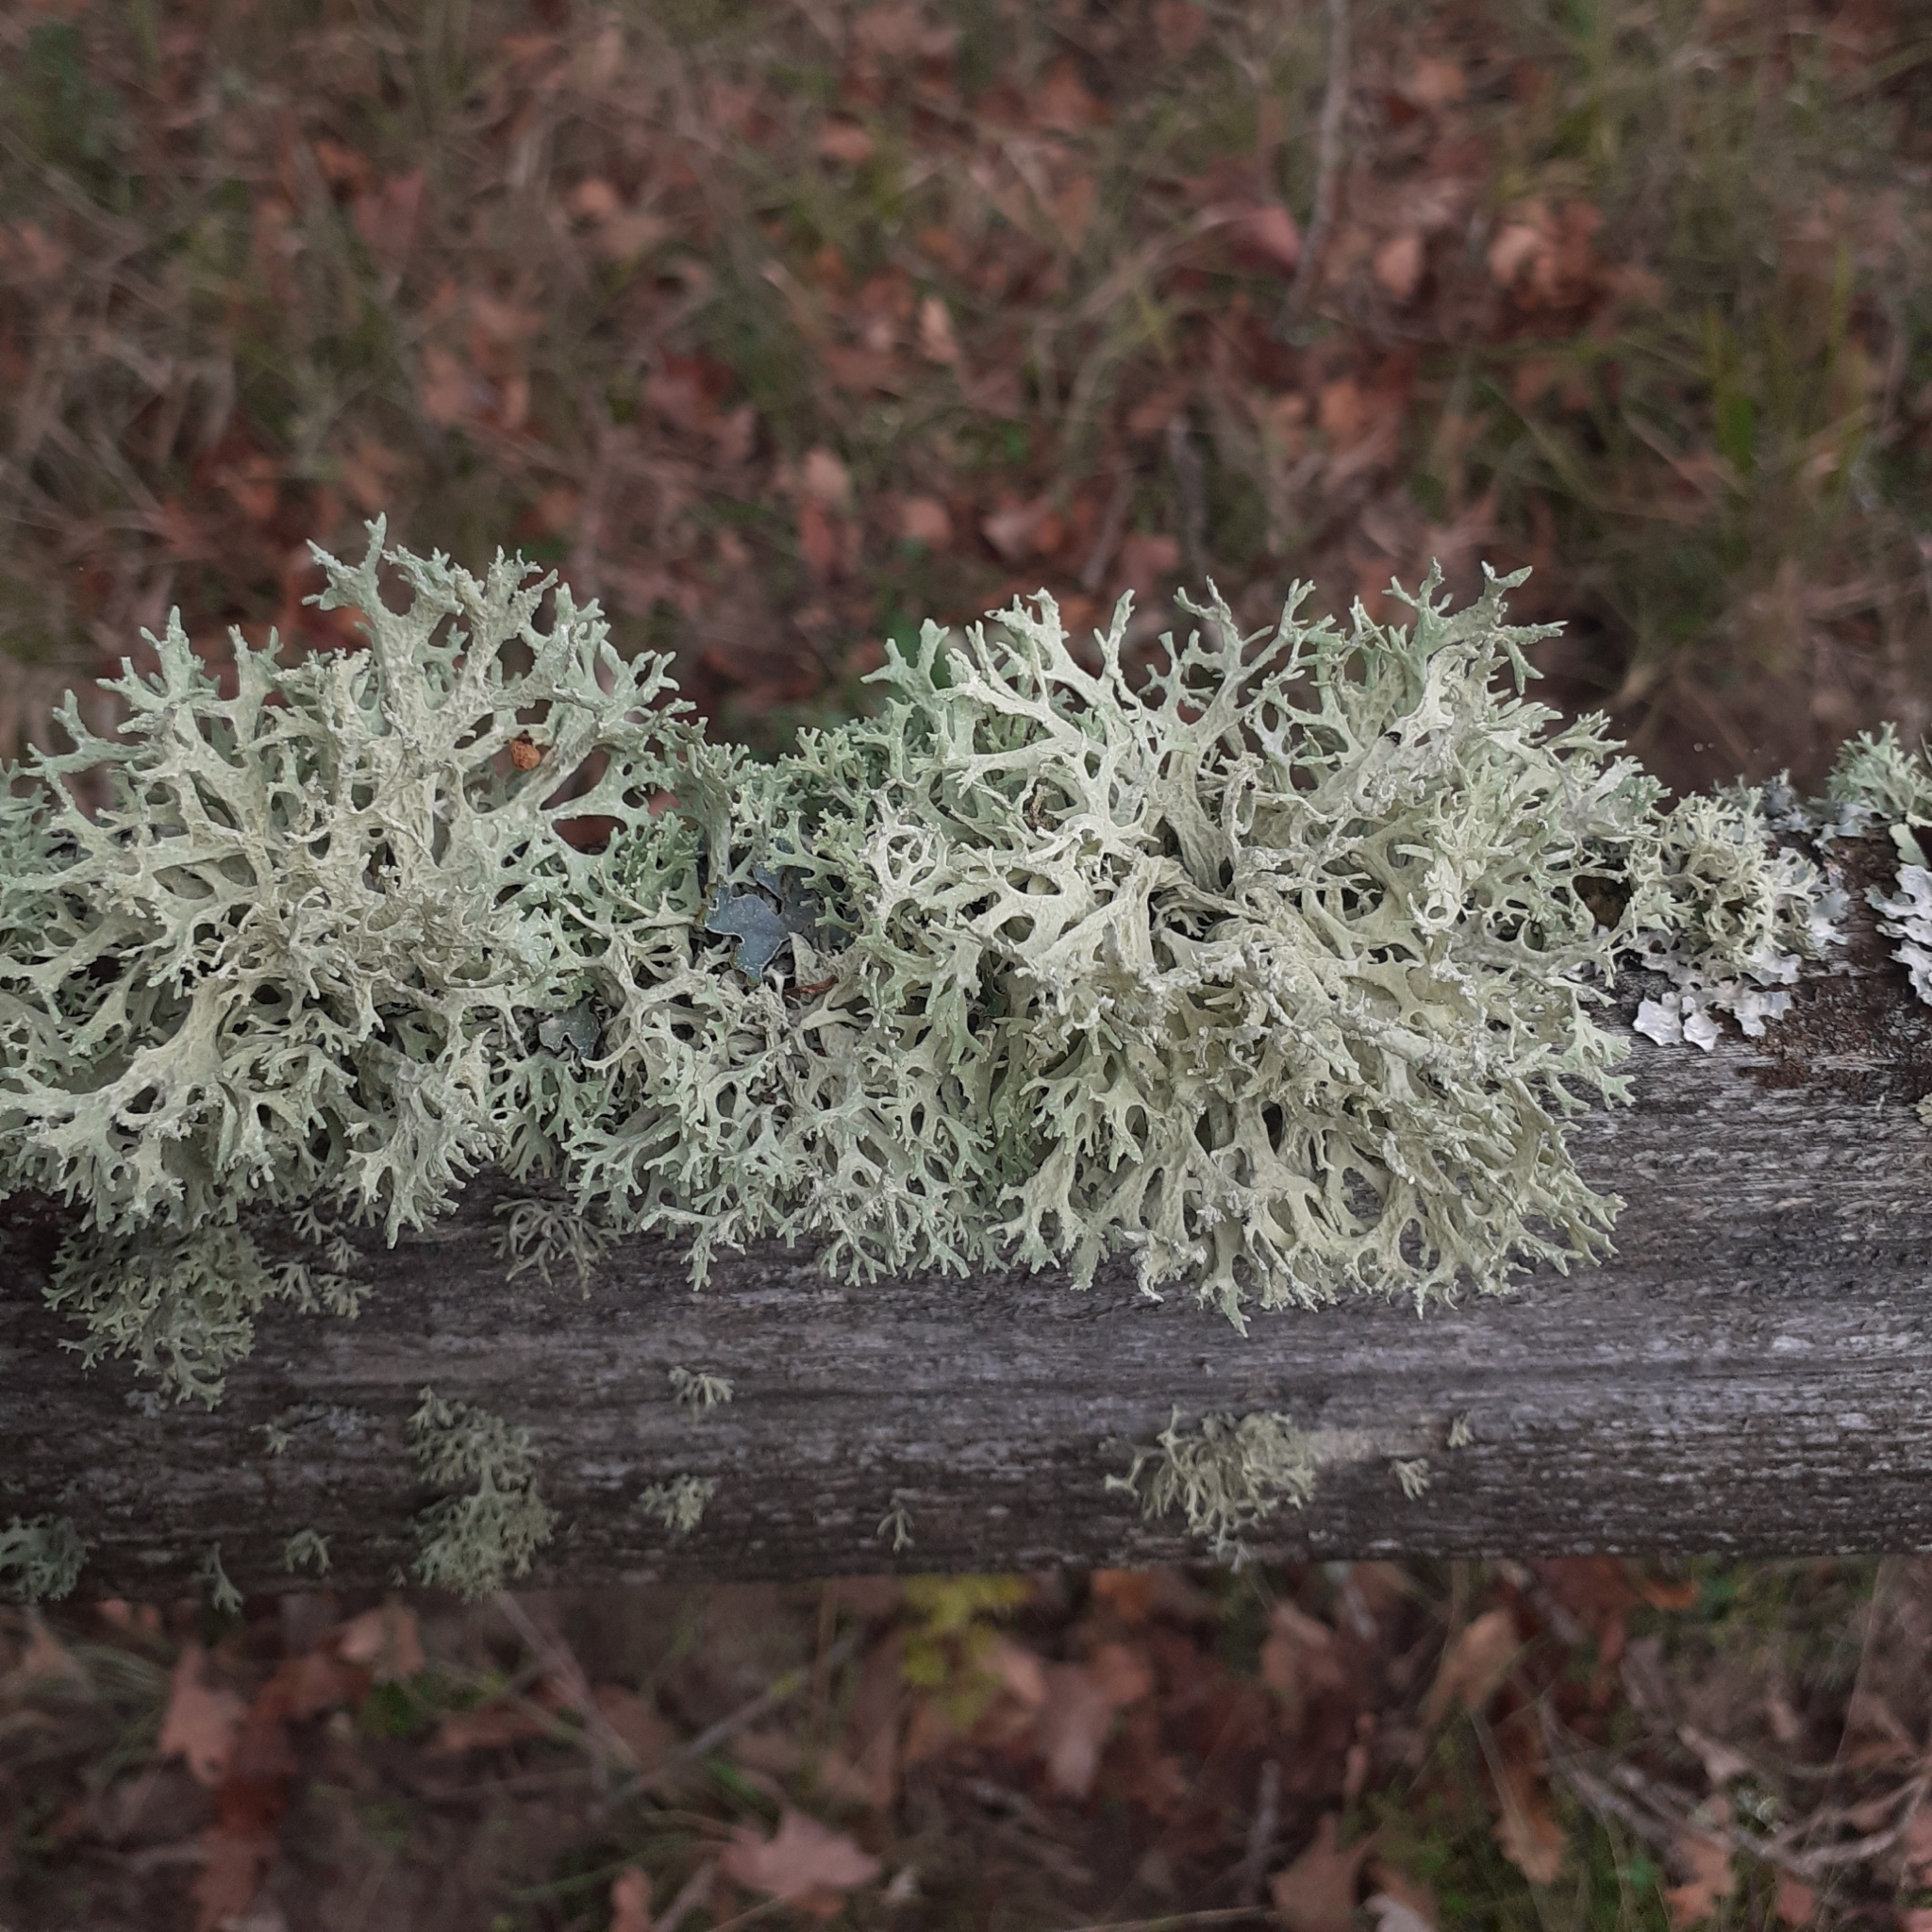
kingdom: Fungi
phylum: Ascomycota
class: Lecanoromycetes
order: Lecanorales
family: Parmeliaceae
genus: Evernia
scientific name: Evernia prunastri
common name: Oak moss
